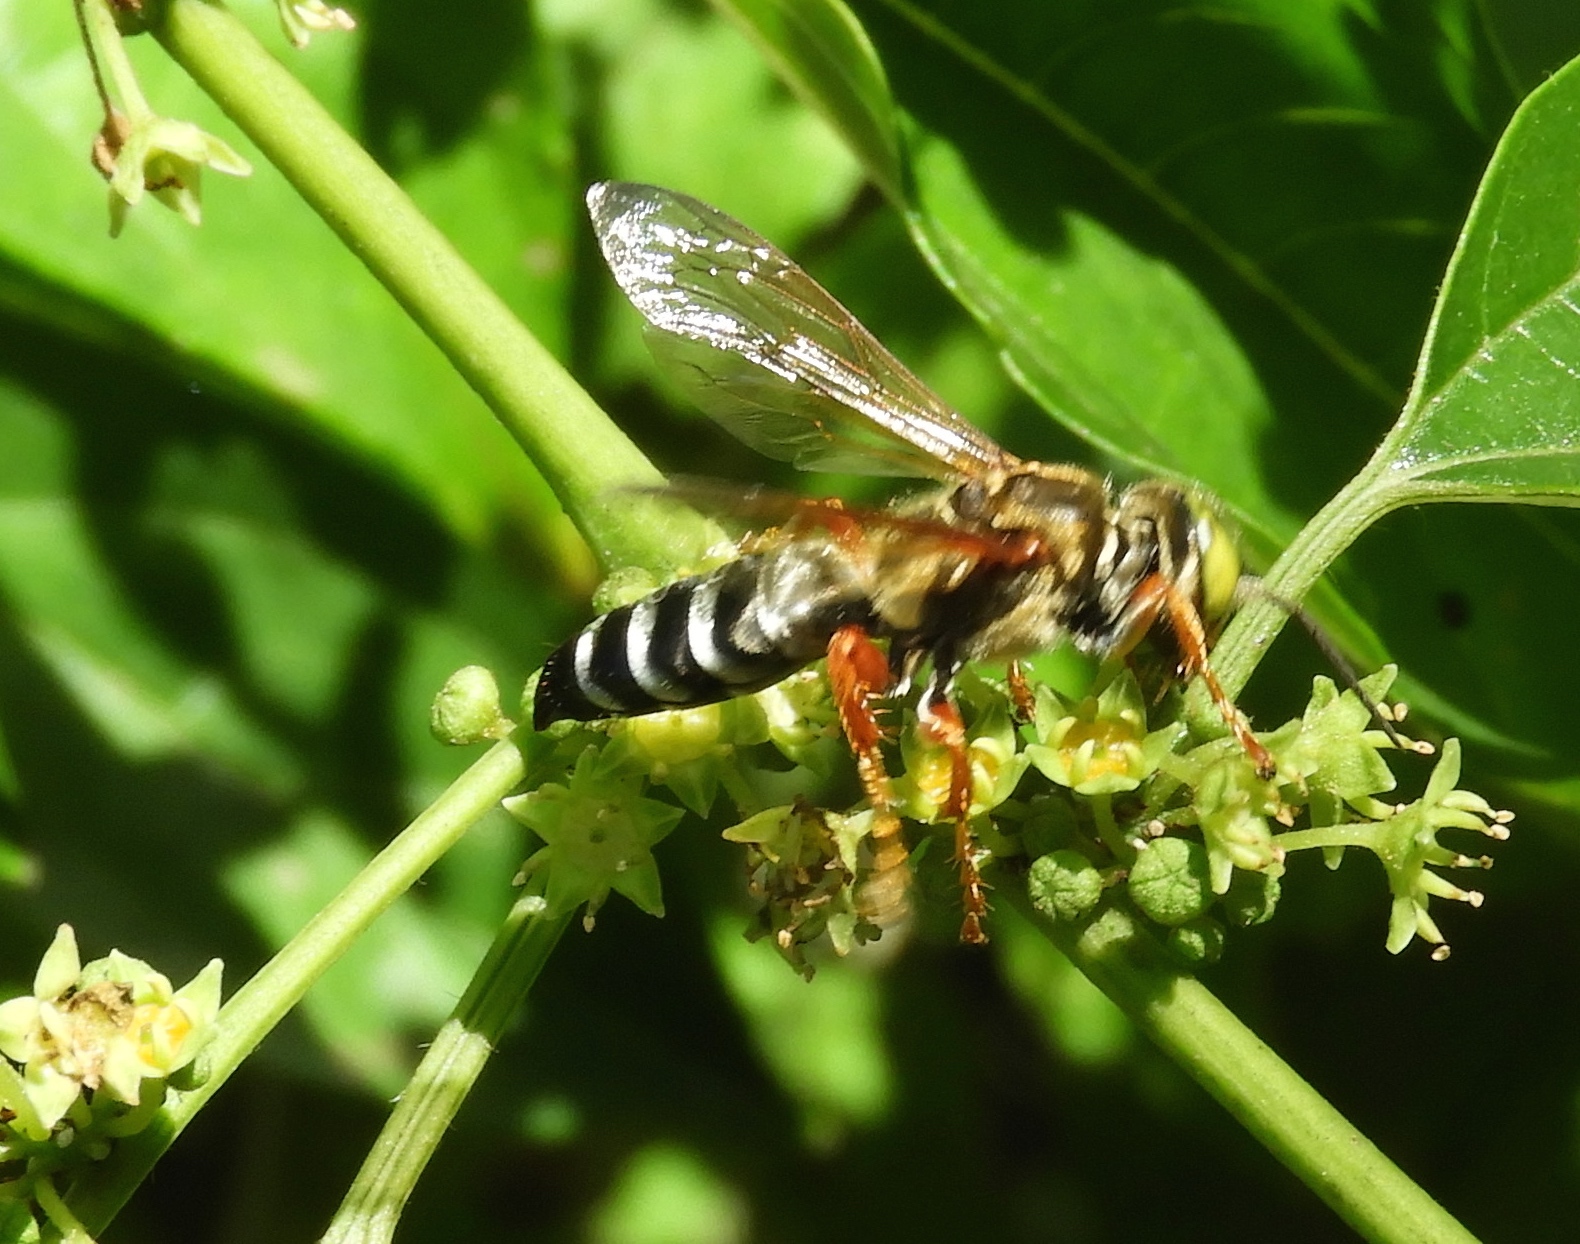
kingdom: Animalia
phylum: Arthropoda
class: Insecta
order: Hymenoptera
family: Crabronidae
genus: Tachytes
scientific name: Tachytes
